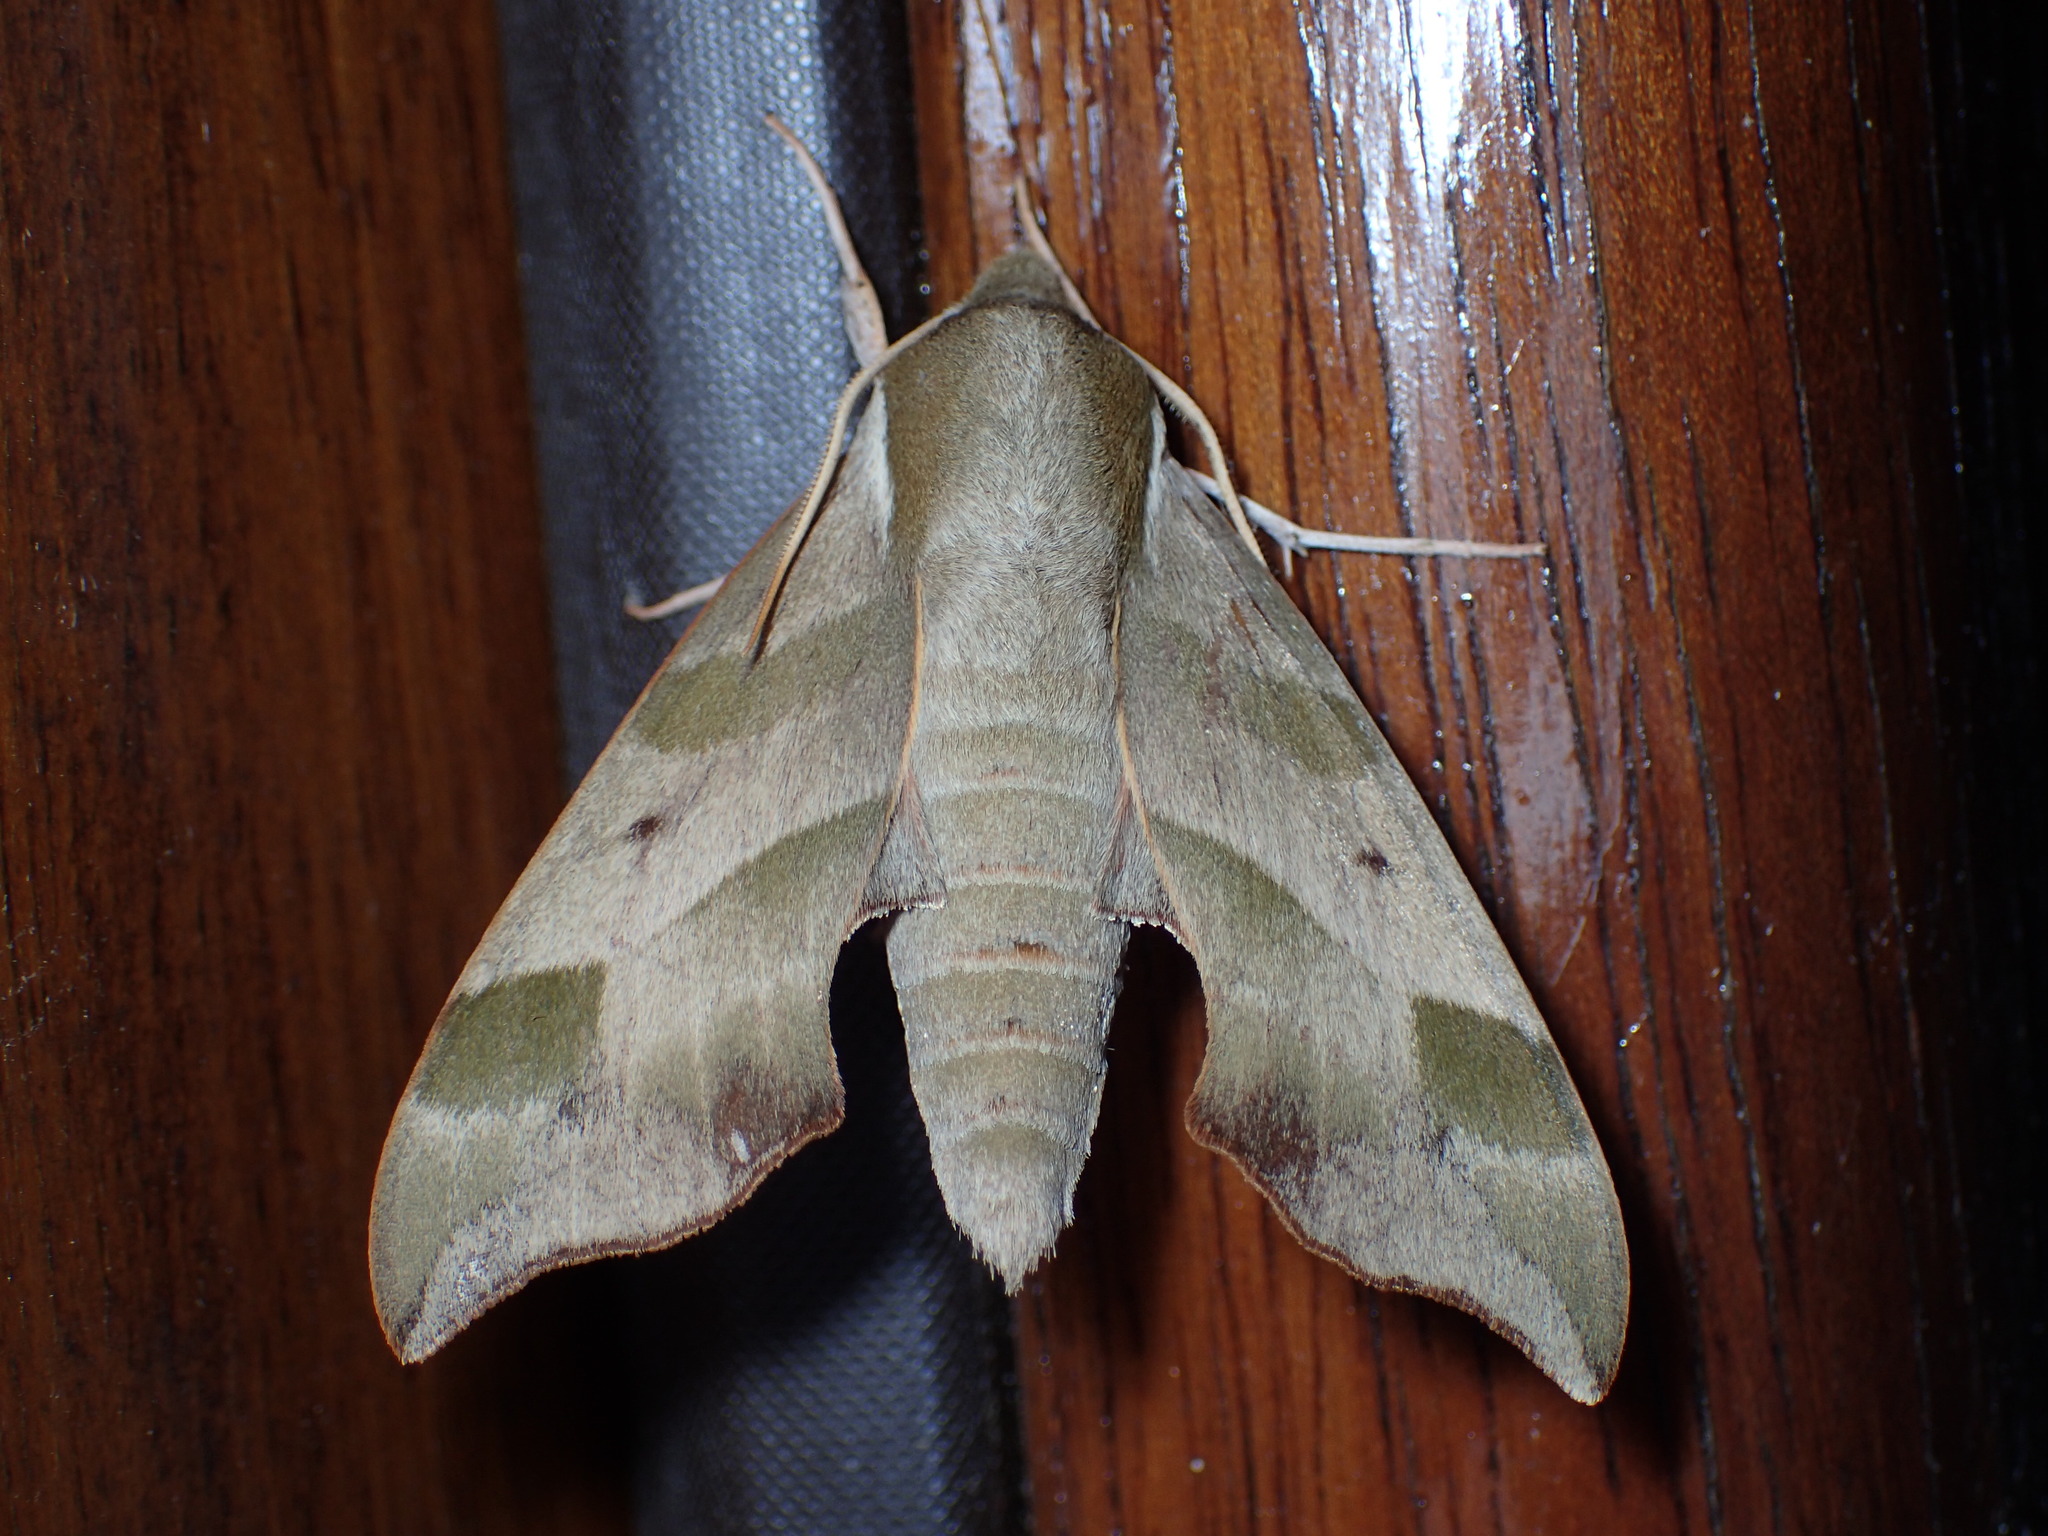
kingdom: Animalia
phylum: Arthropoda
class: Insecta
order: Lepidoptera
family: Sphingidae
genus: Darapsa
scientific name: Darapsa myron
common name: Hog sphinx
